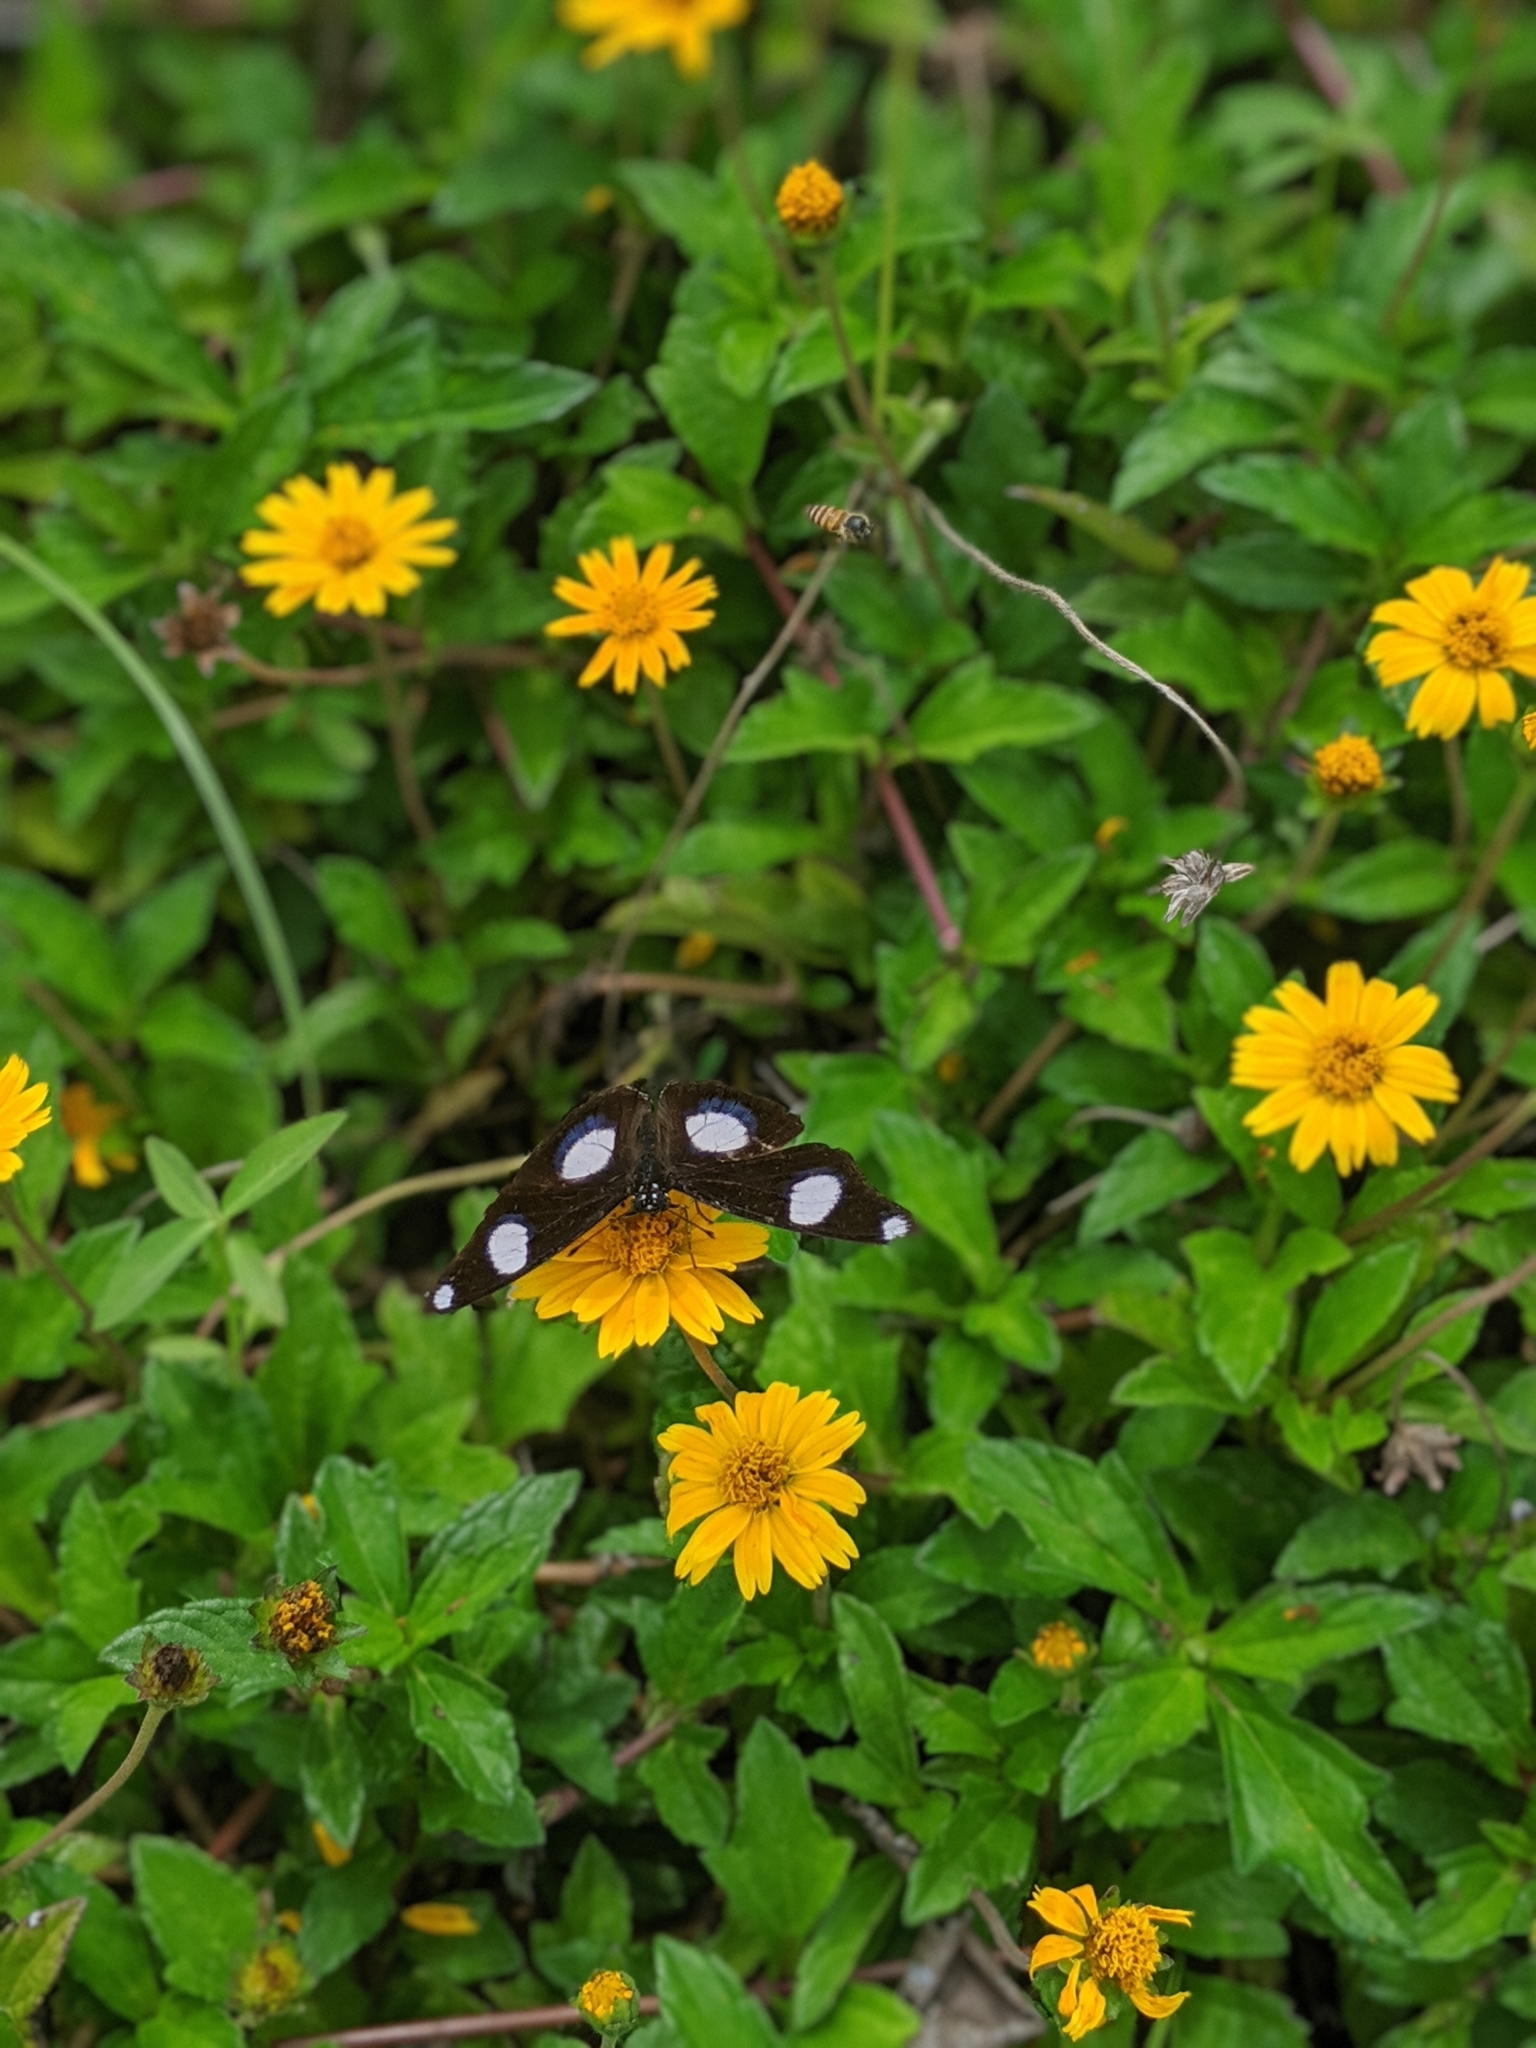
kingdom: Animalia
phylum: Arthropoda
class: Insecta
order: Lepidoptera
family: Nymphalidae
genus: Hypolimnas
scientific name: Hypolimnas misippus
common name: False plain tiger
